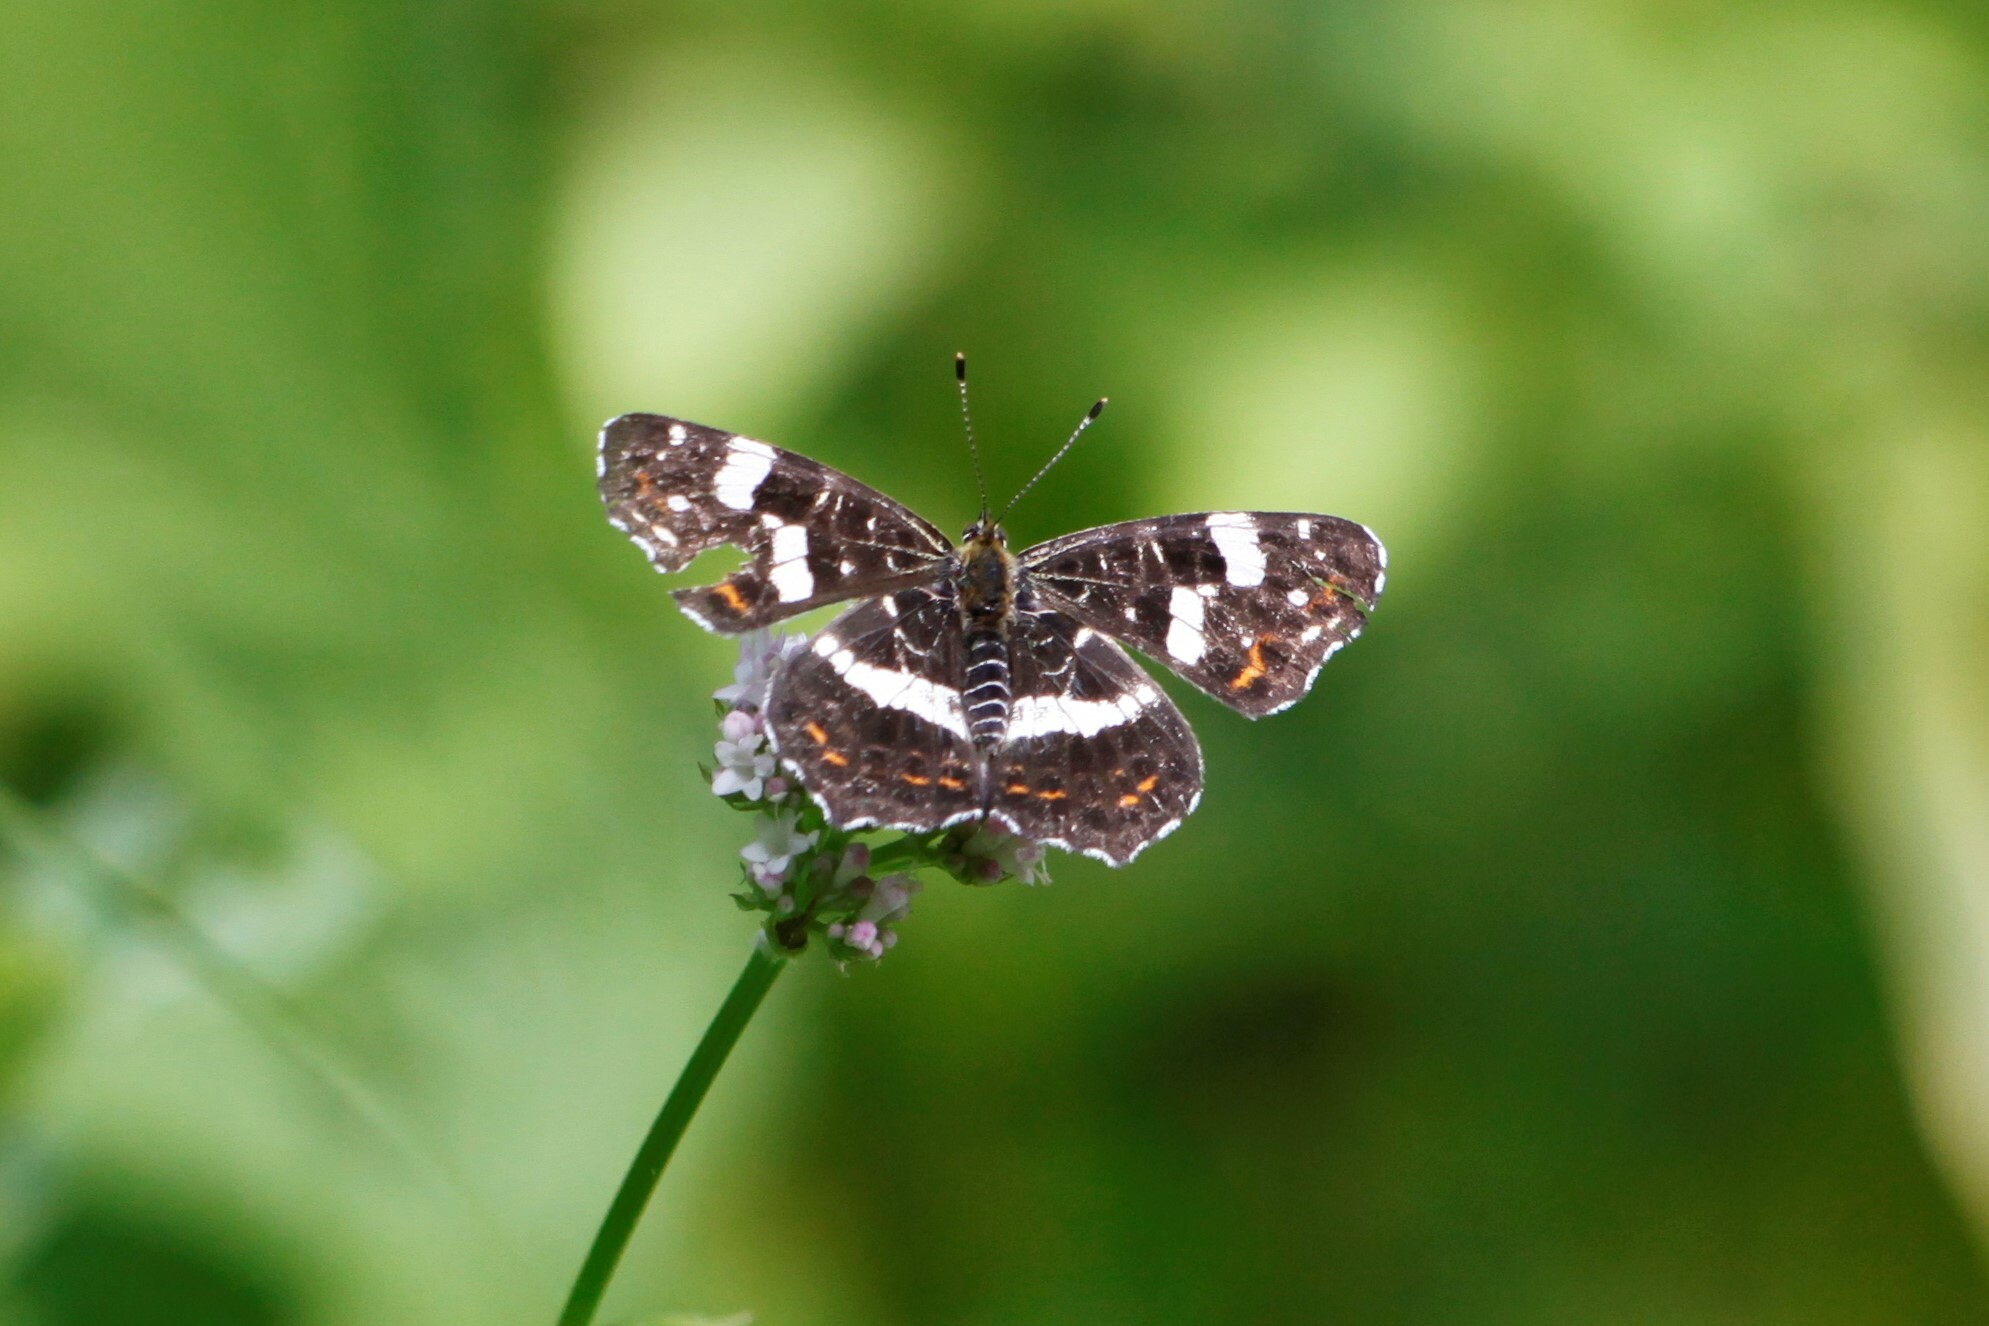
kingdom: Animalia
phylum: Arthropoda
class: Insecta
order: Lepidoptera
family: Nymphalidae
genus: Araschnia
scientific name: Araschnia levana
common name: Map butterfly
